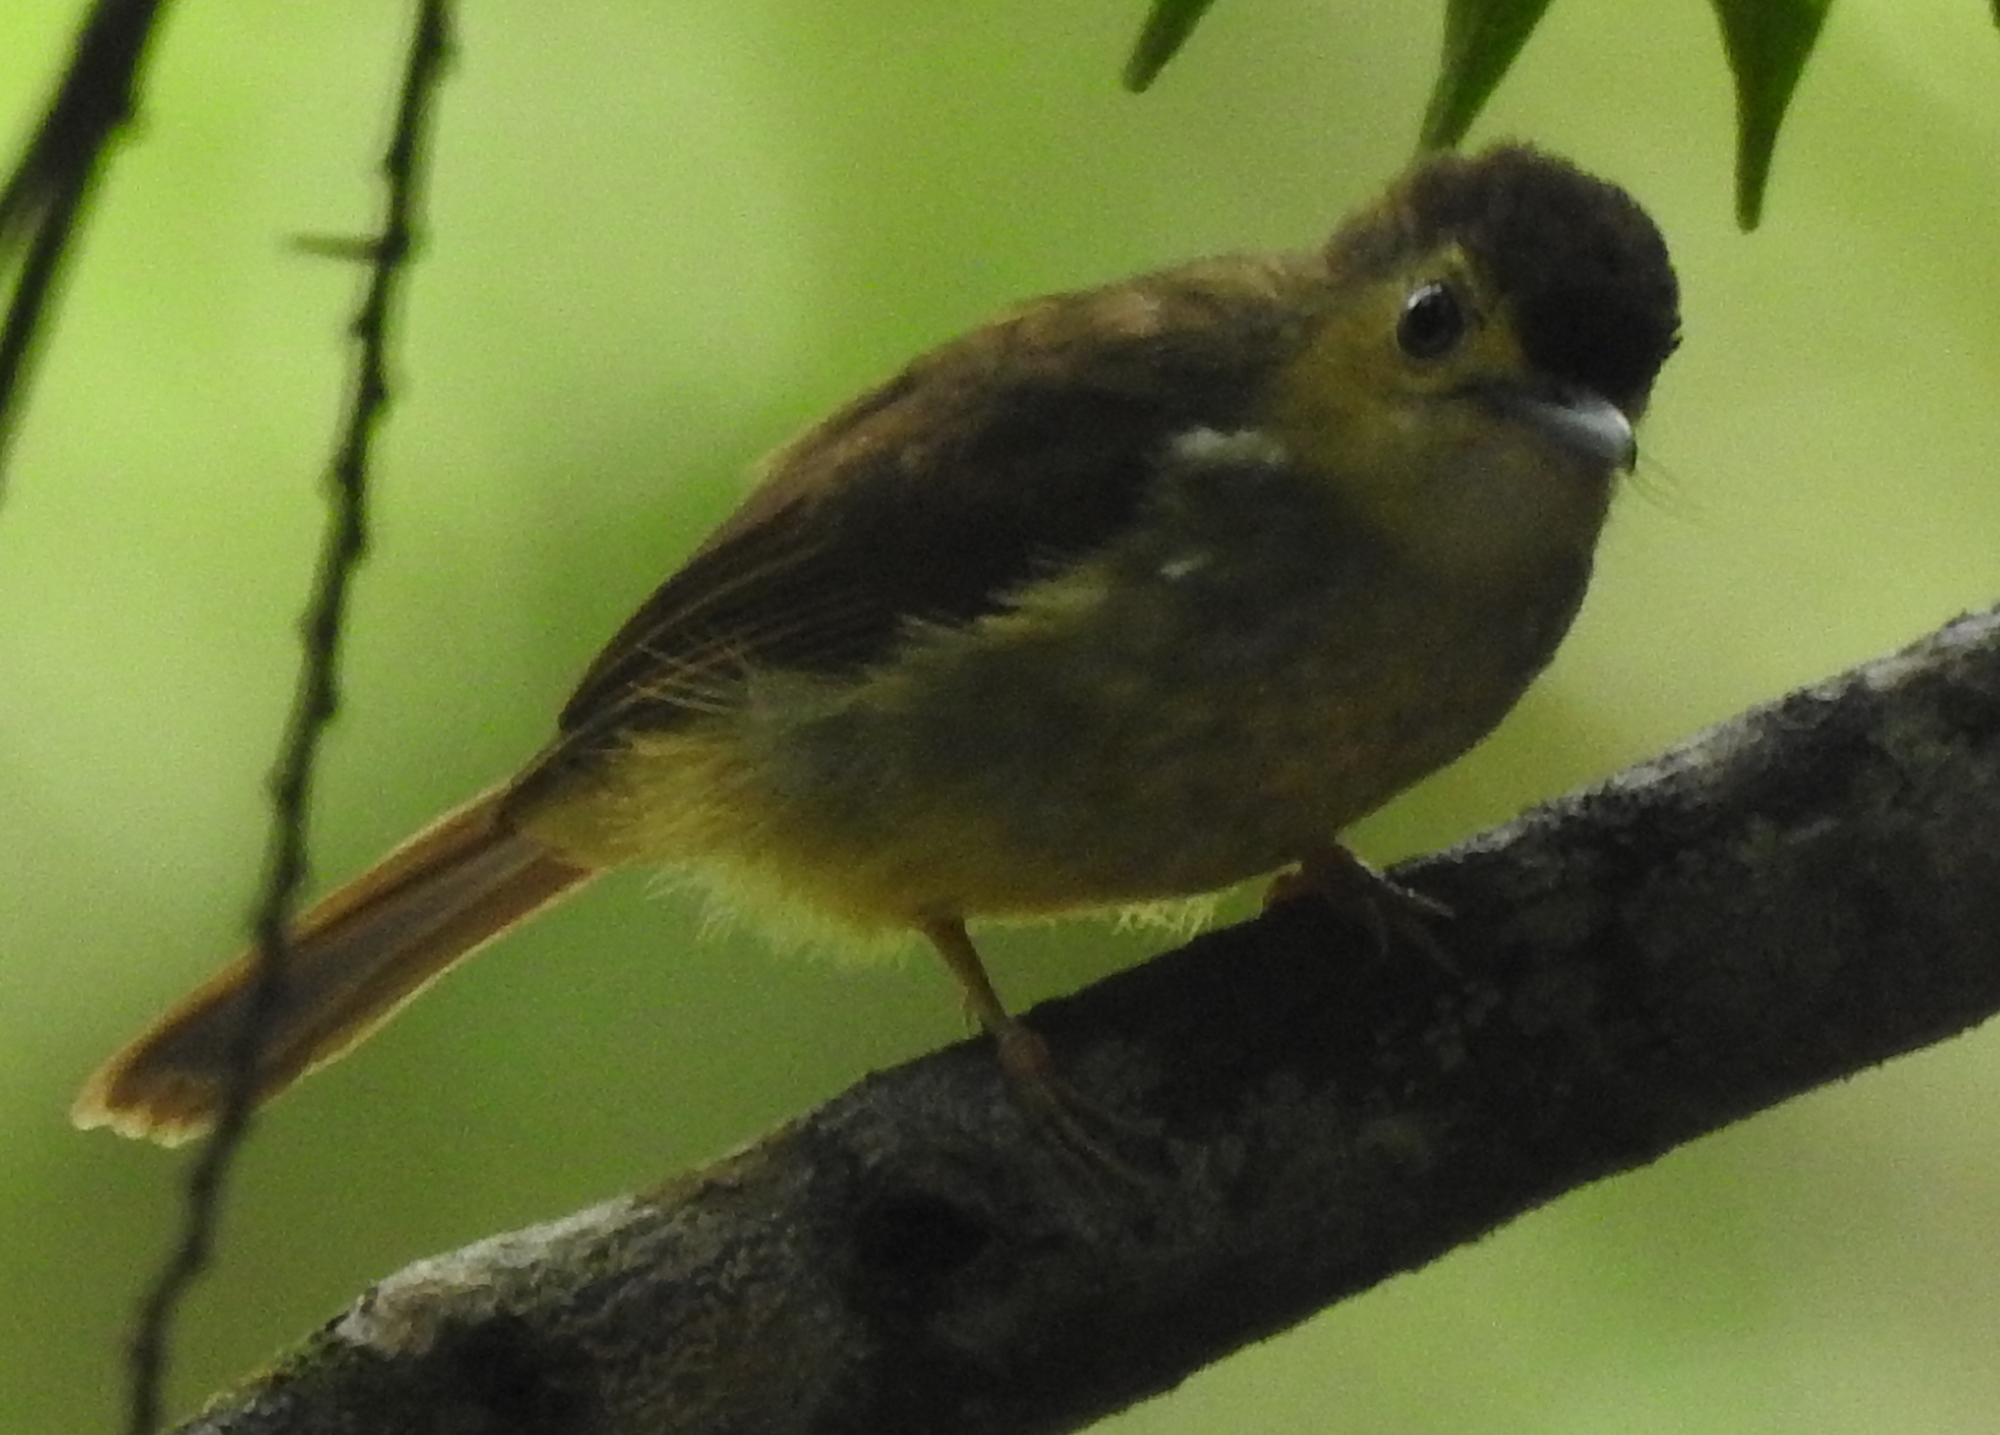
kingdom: Animalia
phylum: Chordata
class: Aves
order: Passeriformes
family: Pycnonotidae
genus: Tricholestes
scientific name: Tricholestes criniger
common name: Hairy-backed bulbul
